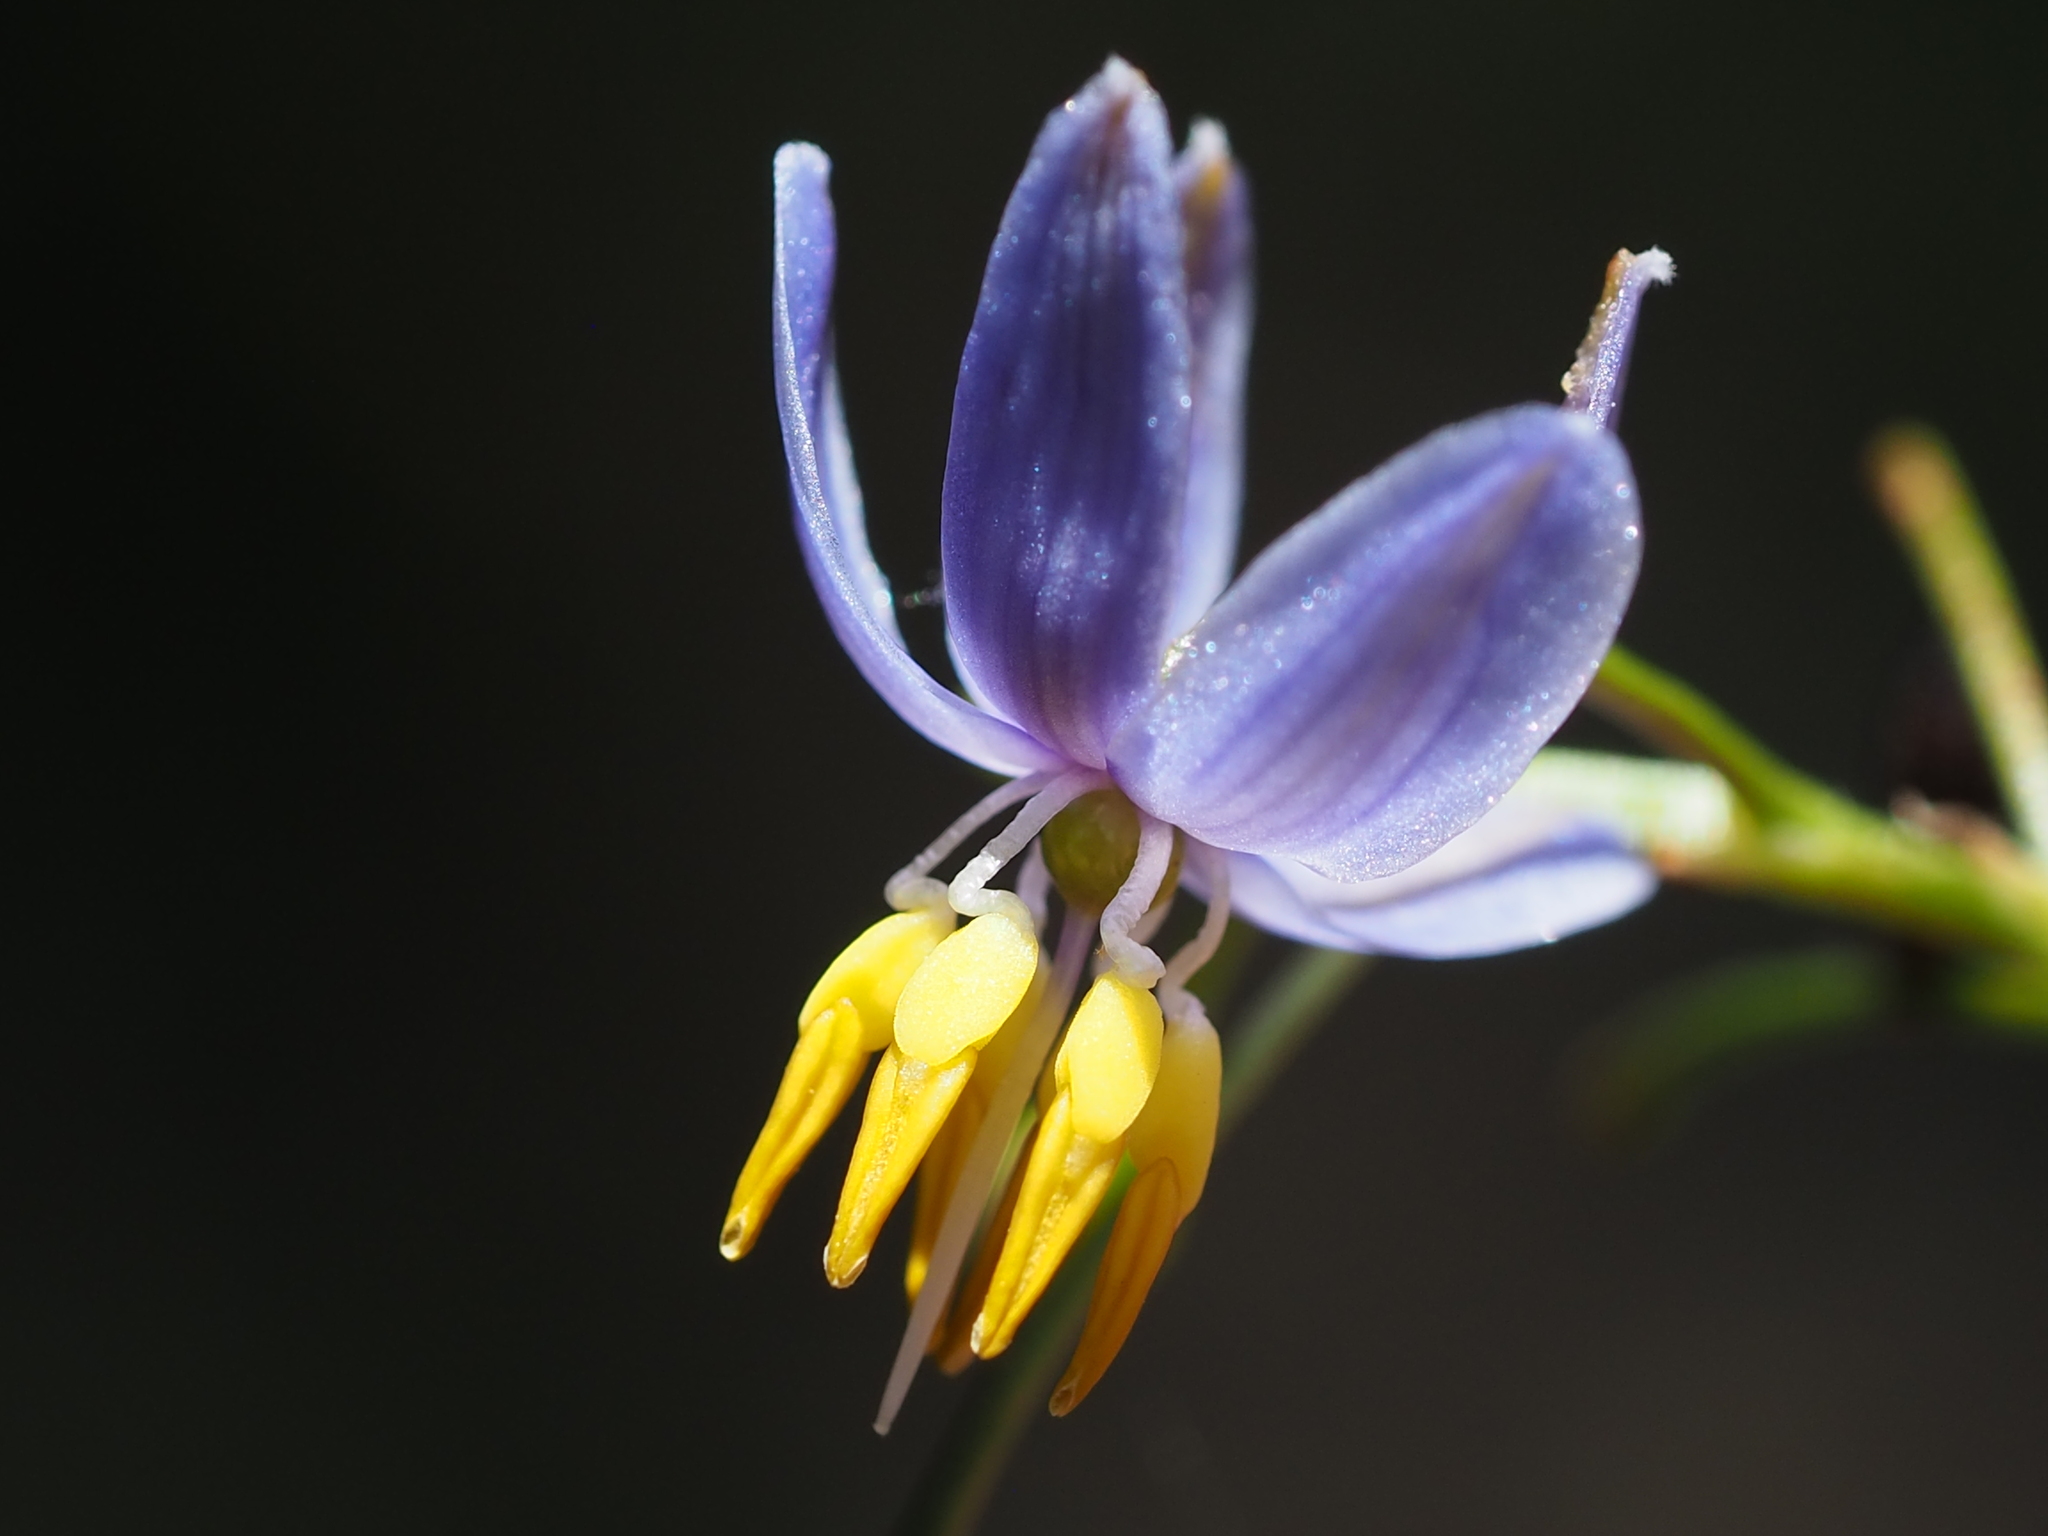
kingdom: Plantae
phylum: Tracheophyta
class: Liliopsida
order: Asparagales
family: Asphodelaceae
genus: Dianella
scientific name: Dianella ensifolia
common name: New zealand lilyplant
